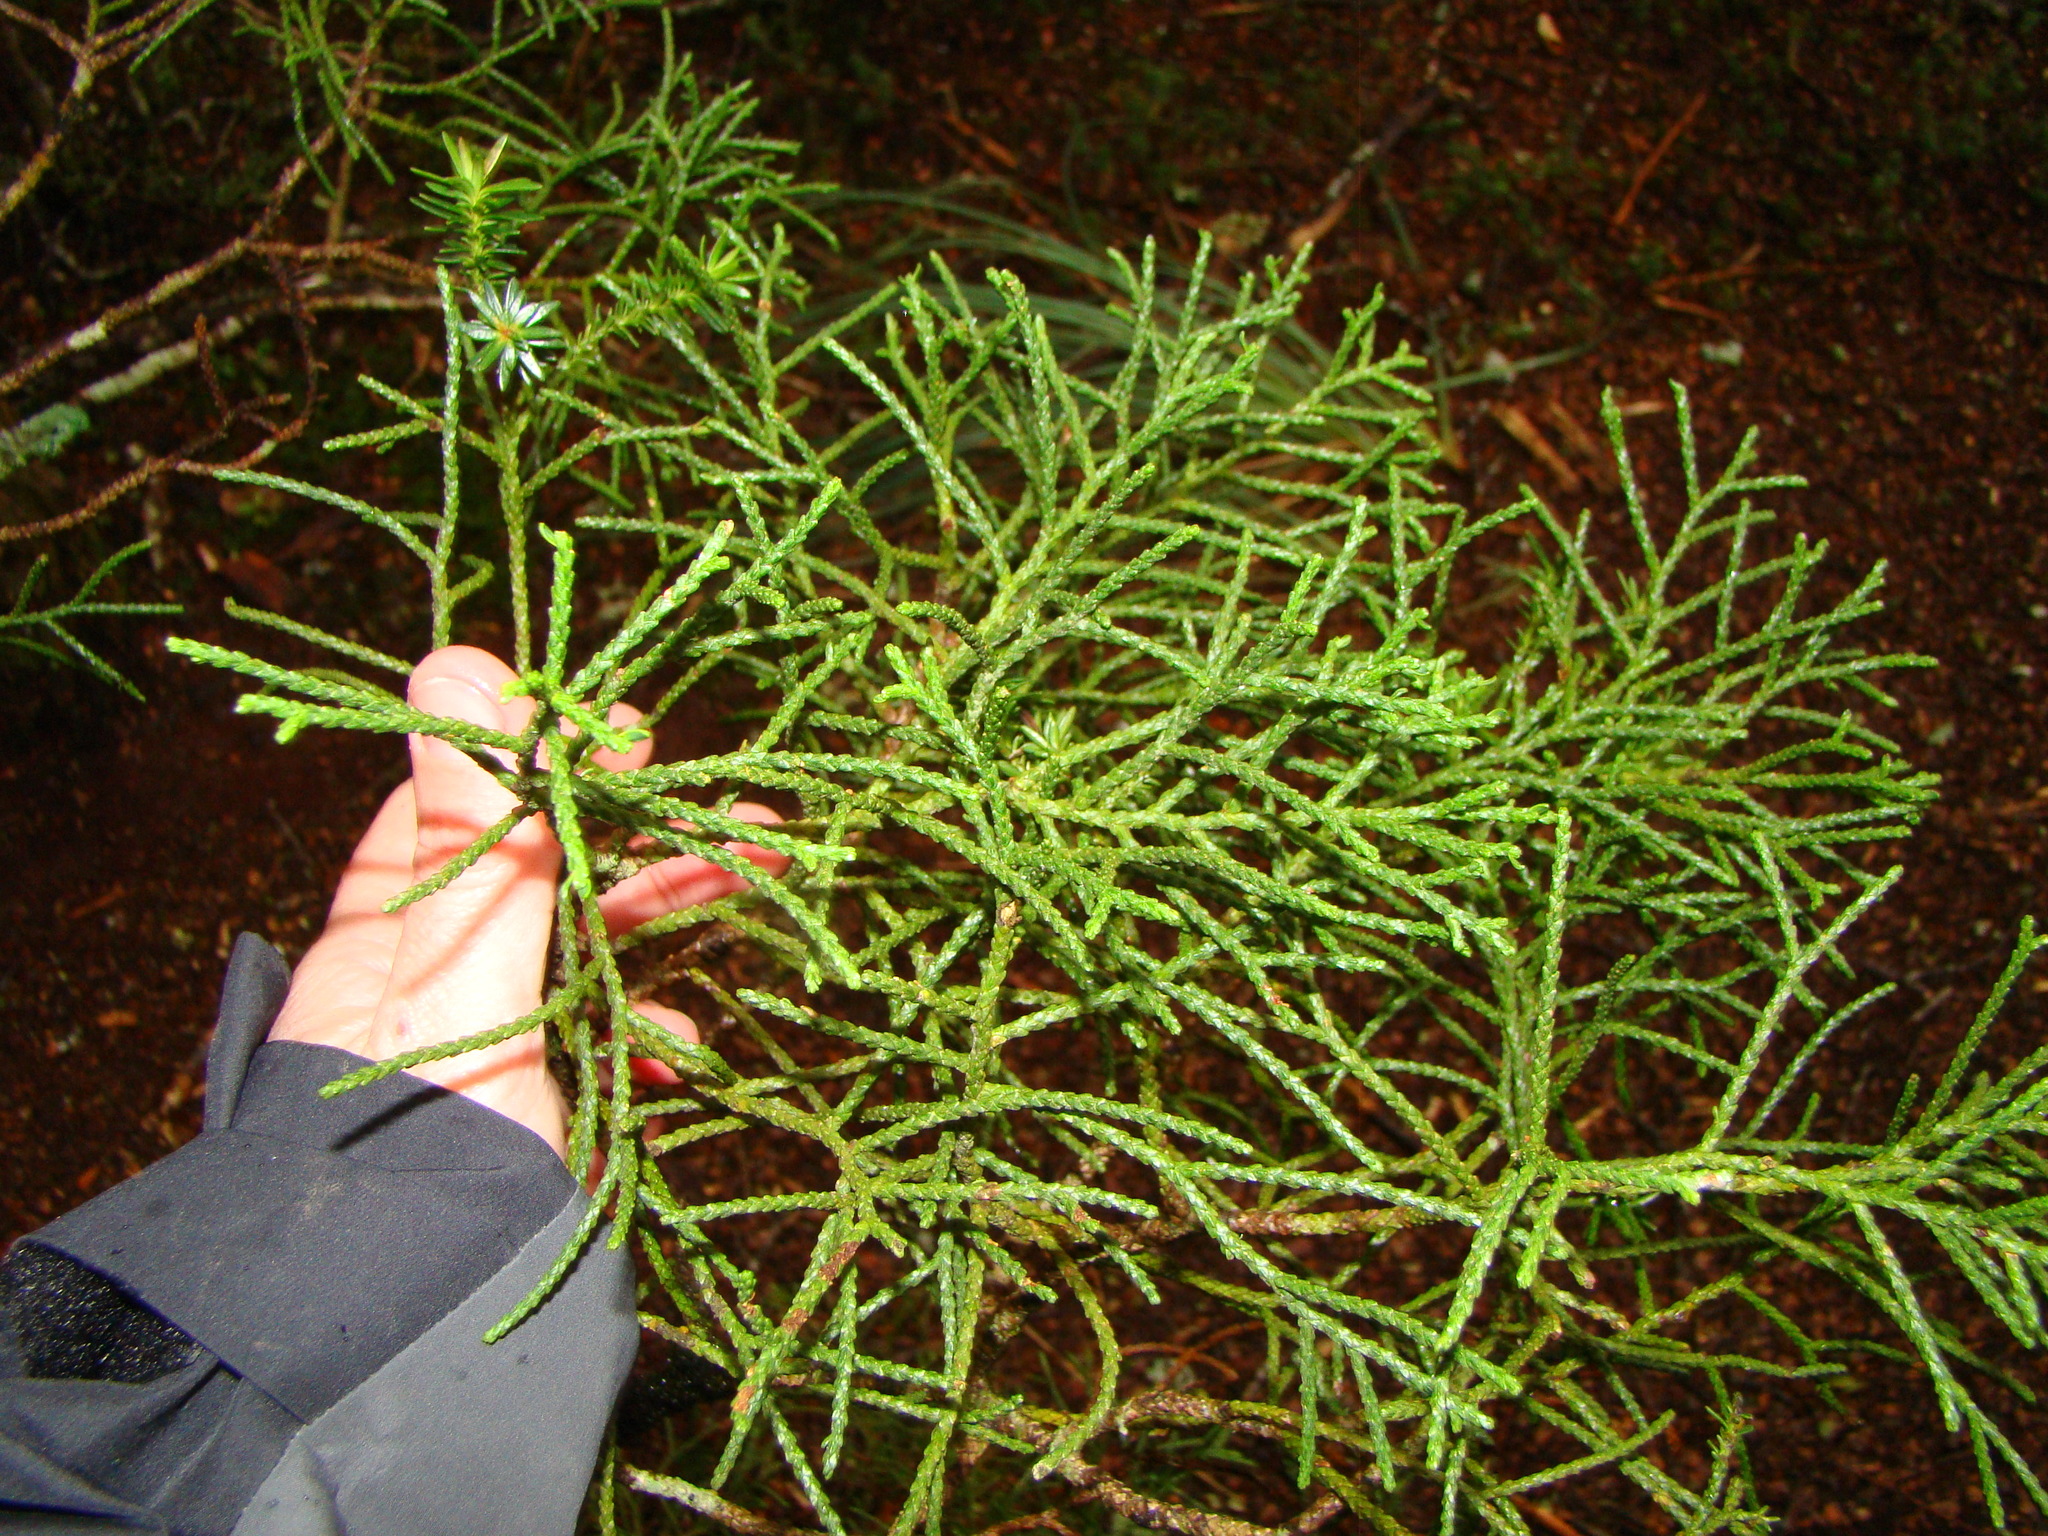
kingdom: Plantae
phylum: Tracheophyta
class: Pinopsida
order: Pinales
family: Podocarpaceae
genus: Halocarpus
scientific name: Halocarpus biformis
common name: Alpine tarwood
